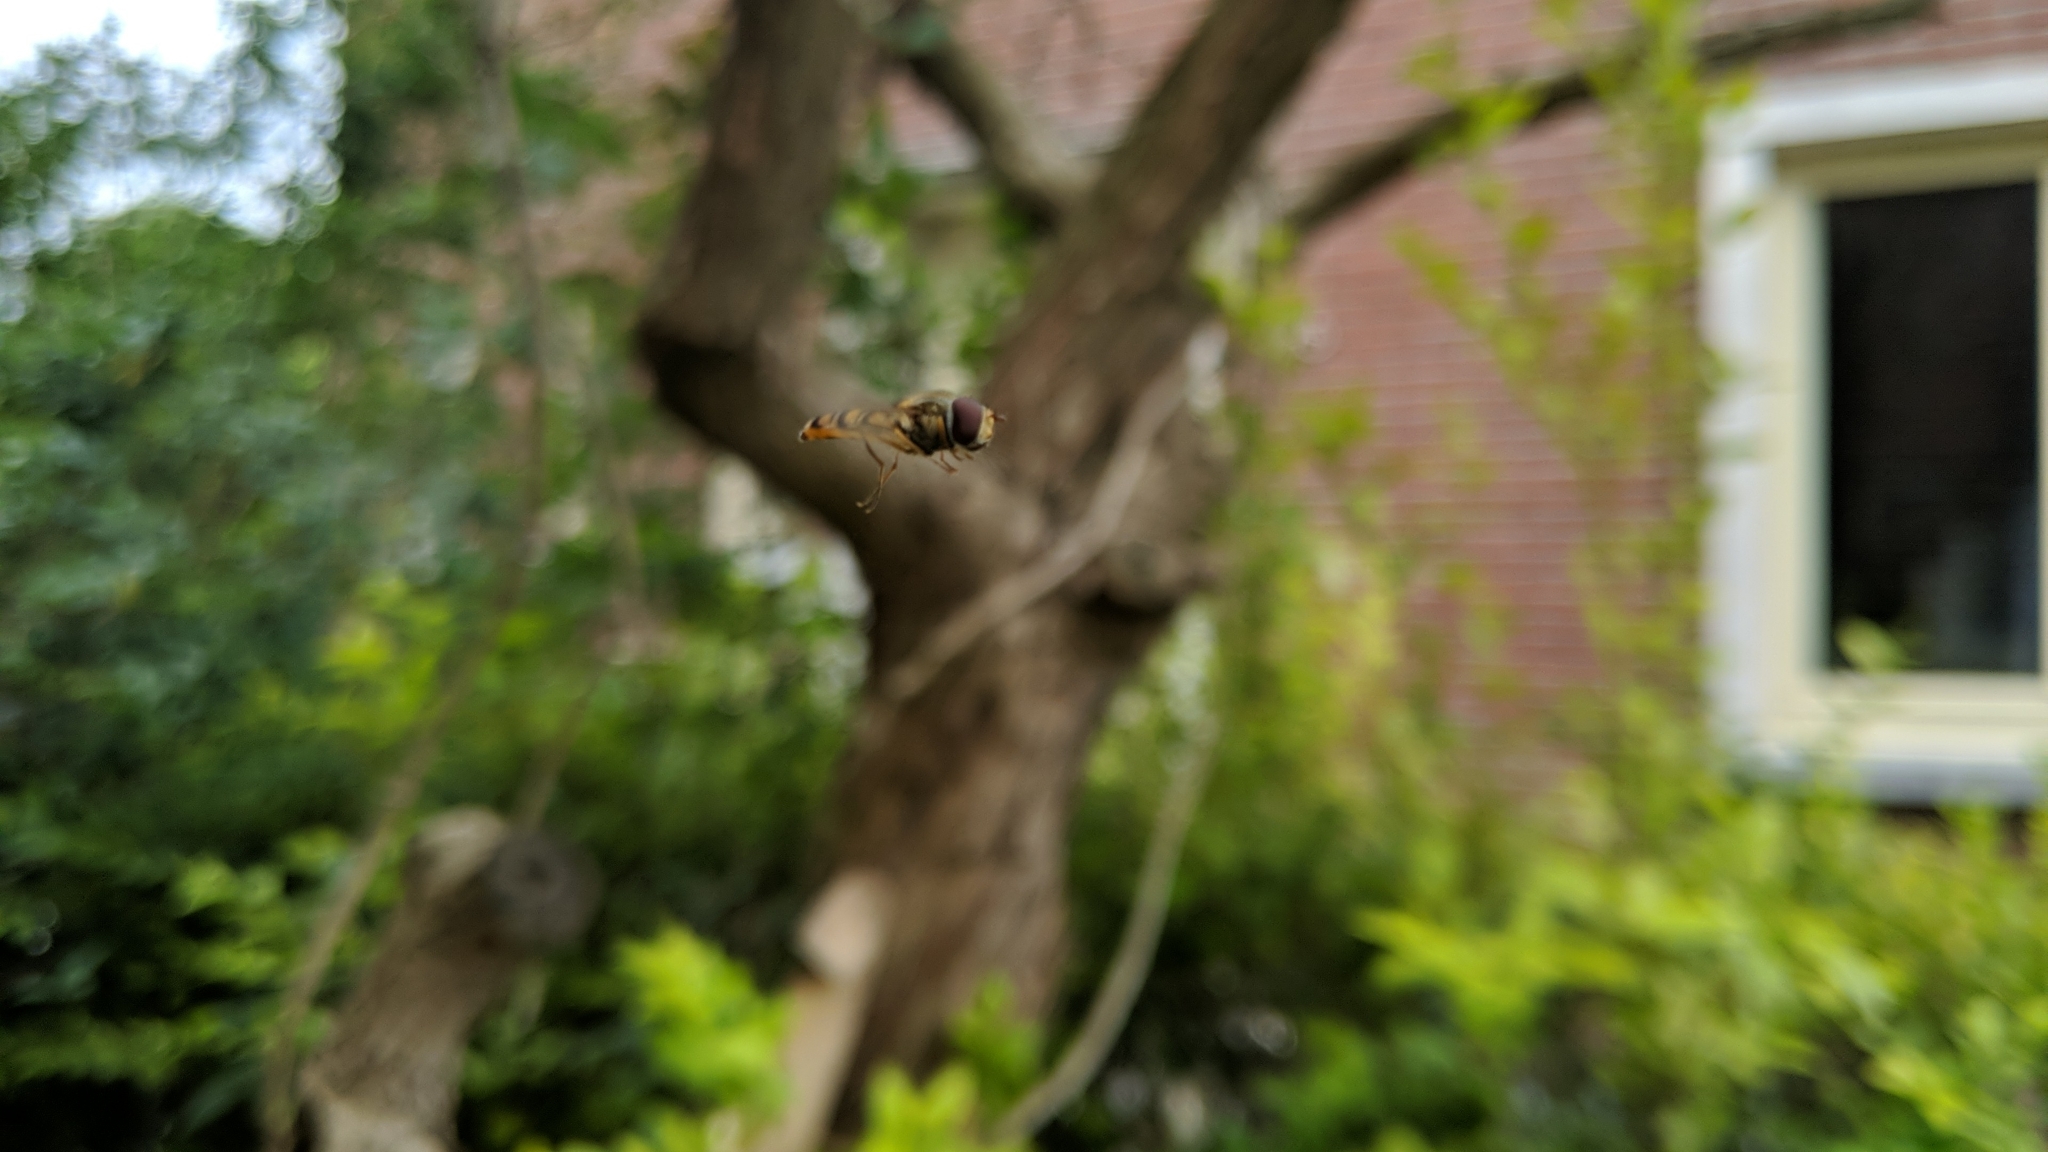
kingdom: Animalia
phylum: Arthropoda
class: Insecta
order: Diptera
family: Syrphidae
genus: Episyrphus
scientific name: Episyrphus balteatus
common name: Marmalade hoverfly
